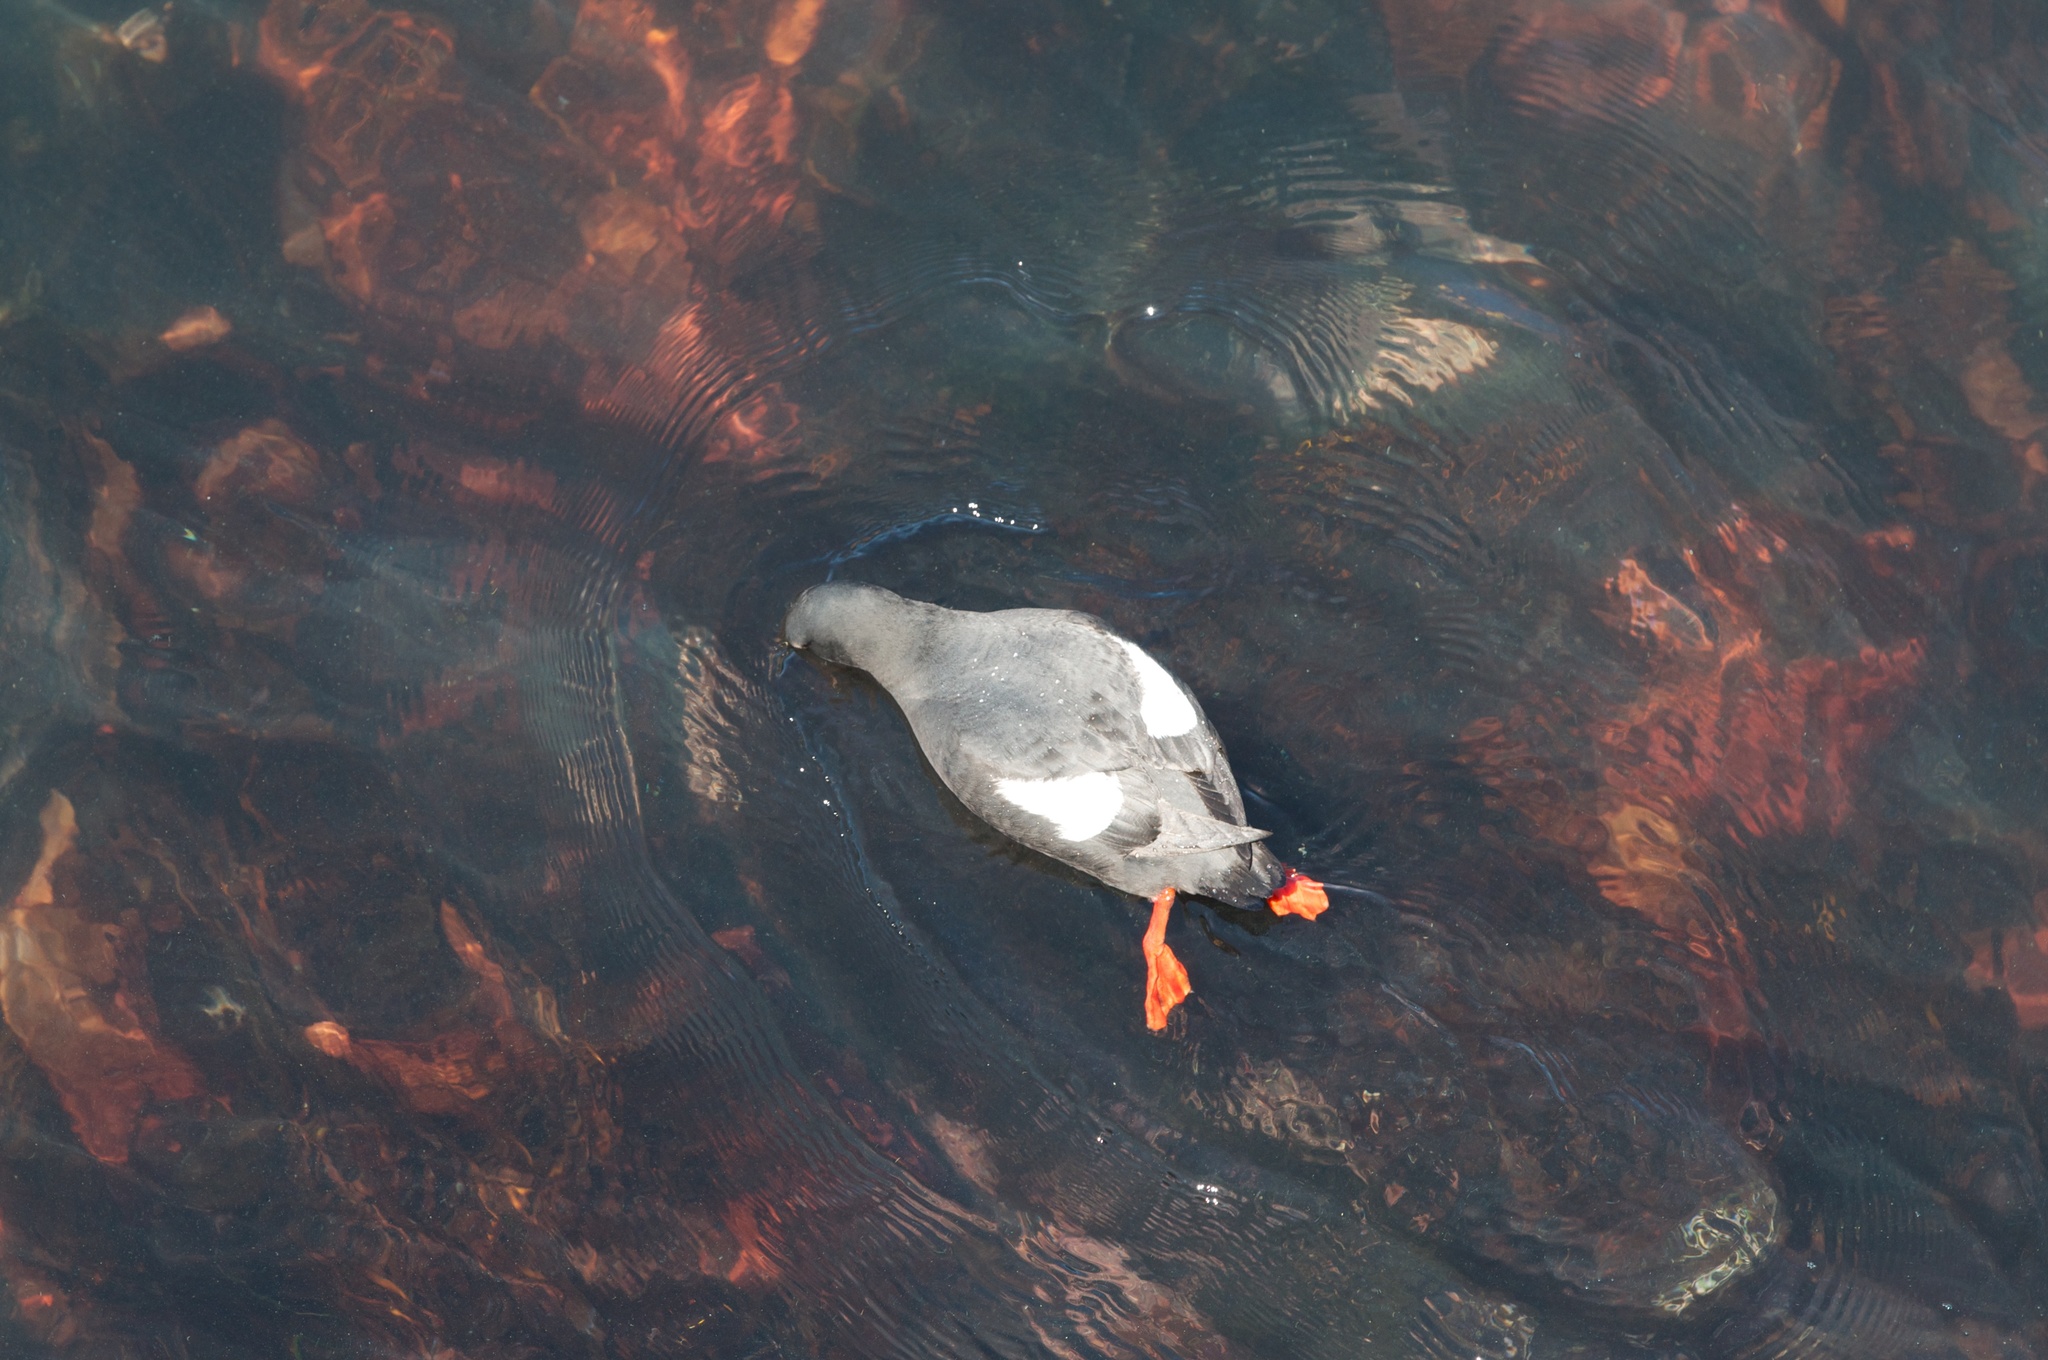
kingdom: Animalia
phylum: Chordata
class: Aves
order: Charadriiformes
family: Alcidae
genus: Cepphus
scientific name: Cepphus columba
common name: Pigeon guillemot
